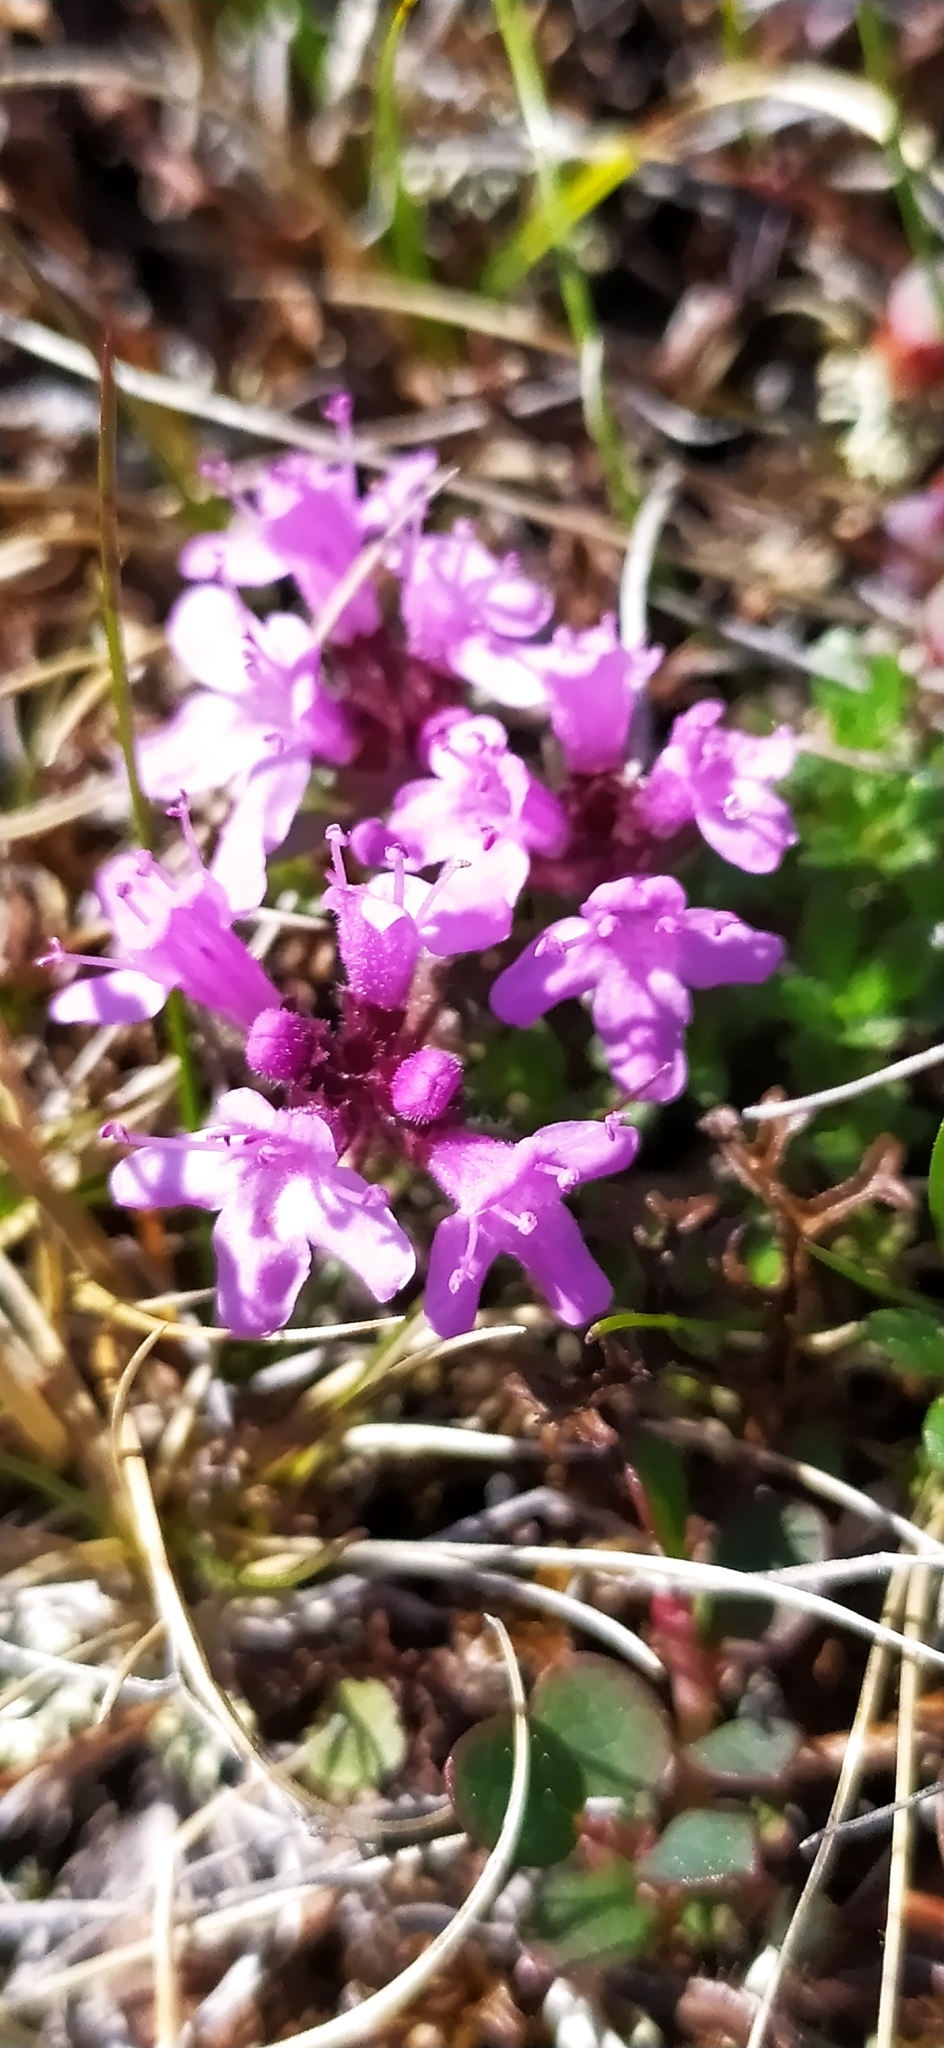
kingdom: Plantae
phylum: Tracheophyta
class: Magnoliopsida
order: Lamiales
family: Lamiaceae
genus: Thymus
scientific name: Thymus glabricaulis
